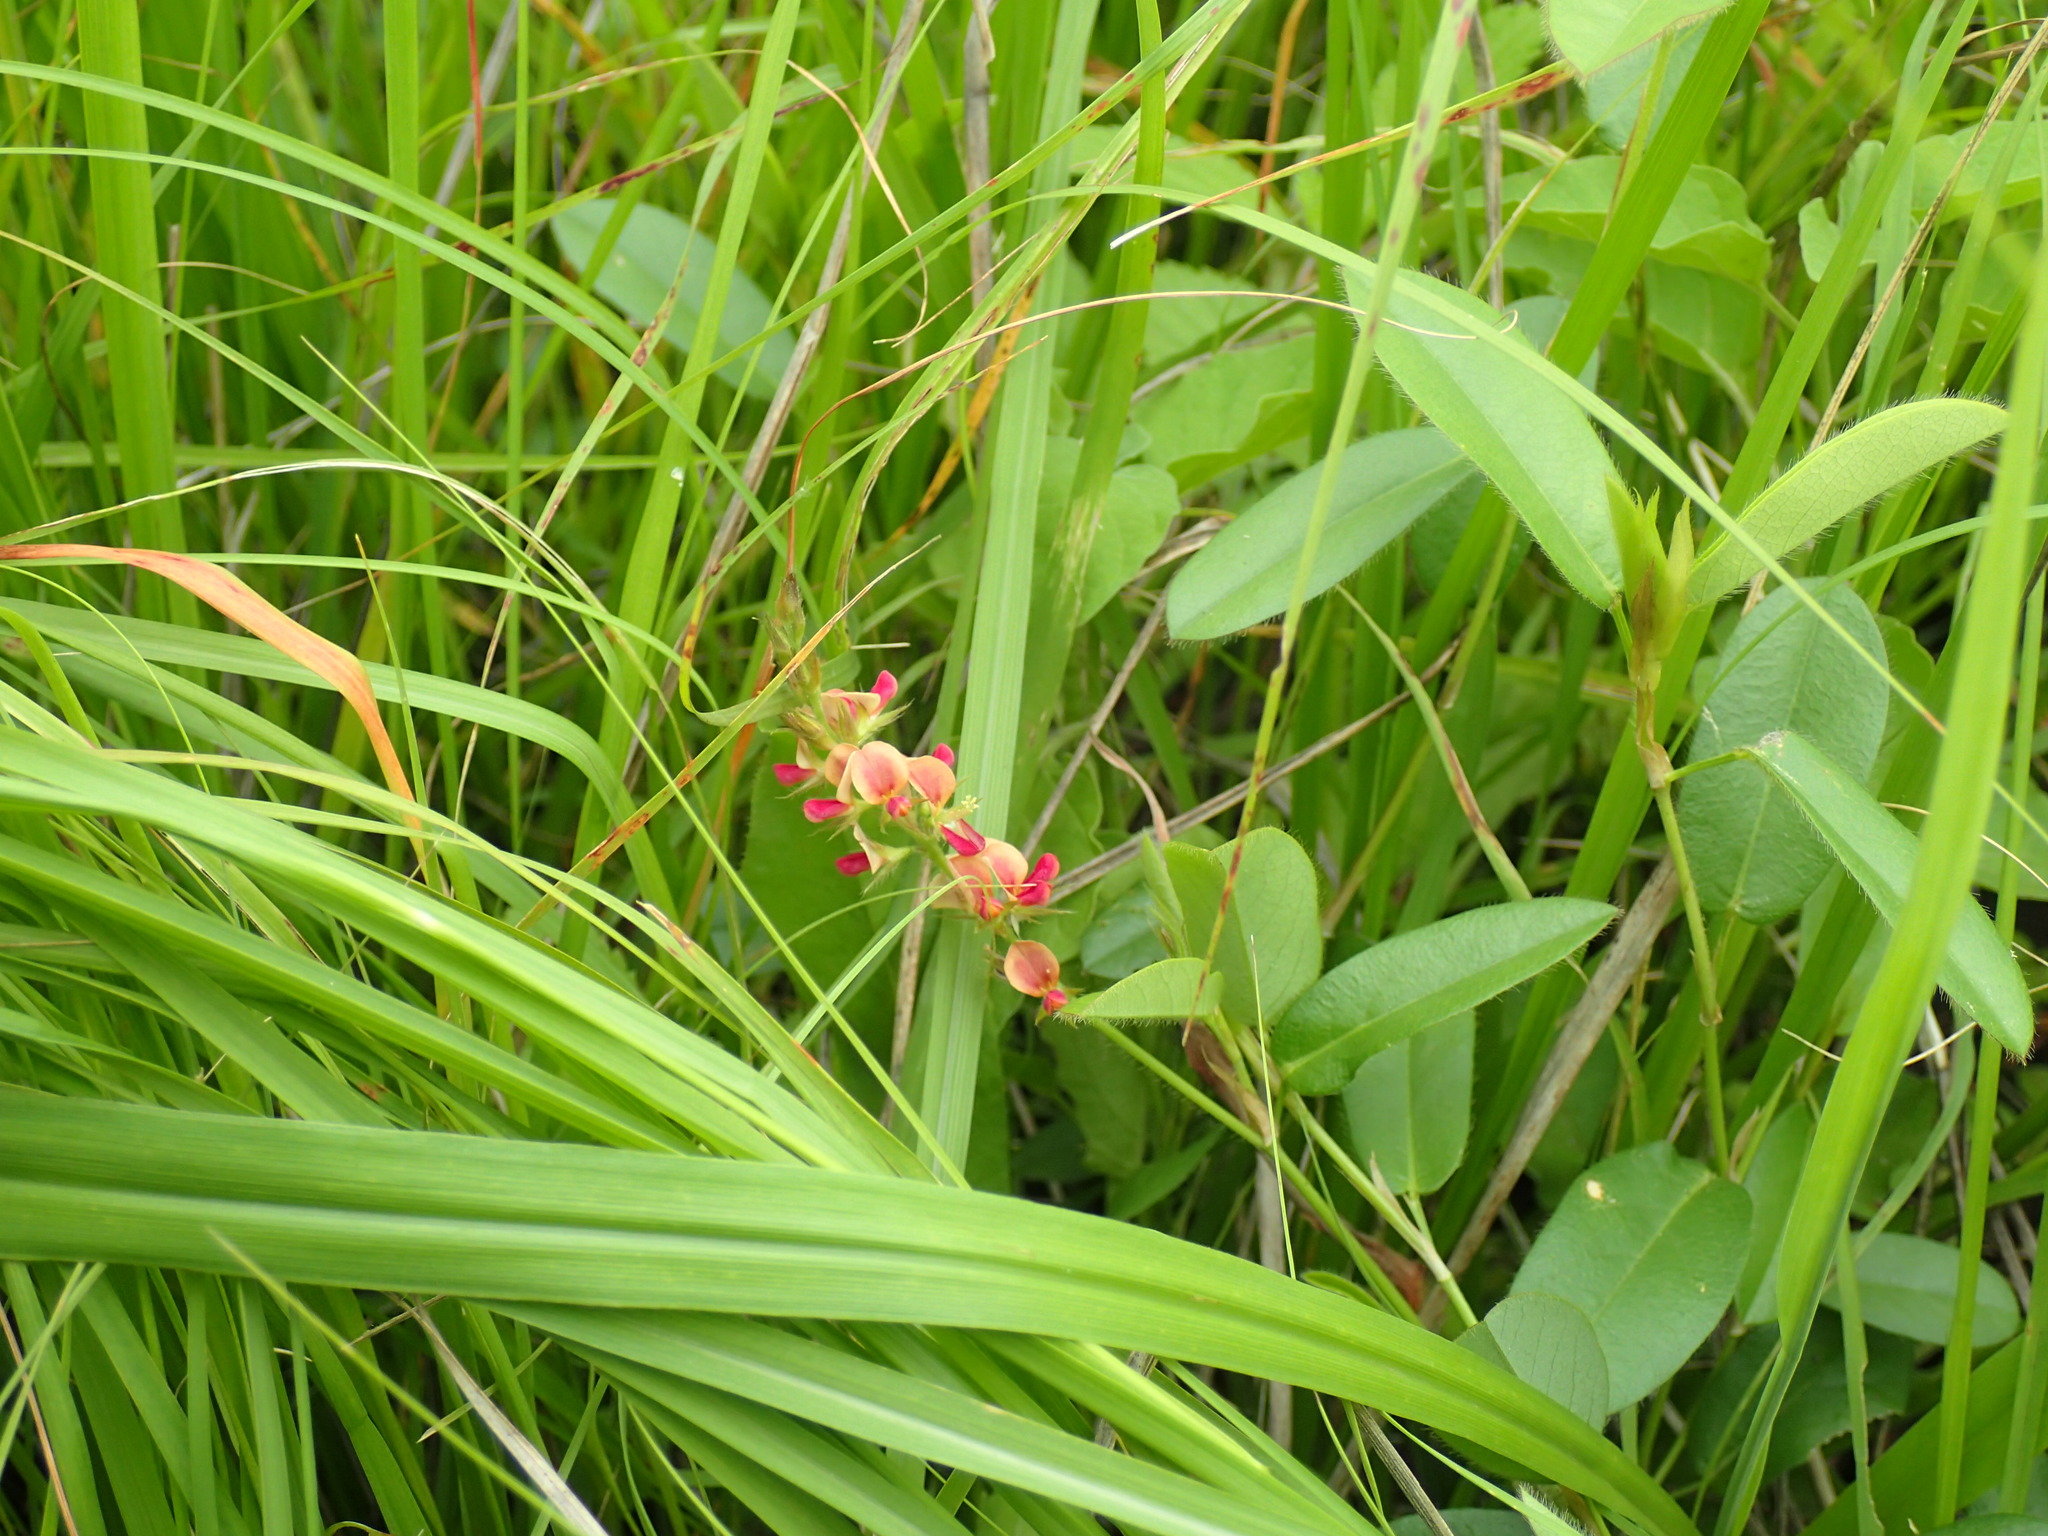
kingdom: Plantae
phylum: Tracheophyta
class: Magnoliopsida
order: Fabales
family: Fabaceae
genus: Alysicarpus
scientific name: Alysicarpus vaginalis
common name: White moneywort
